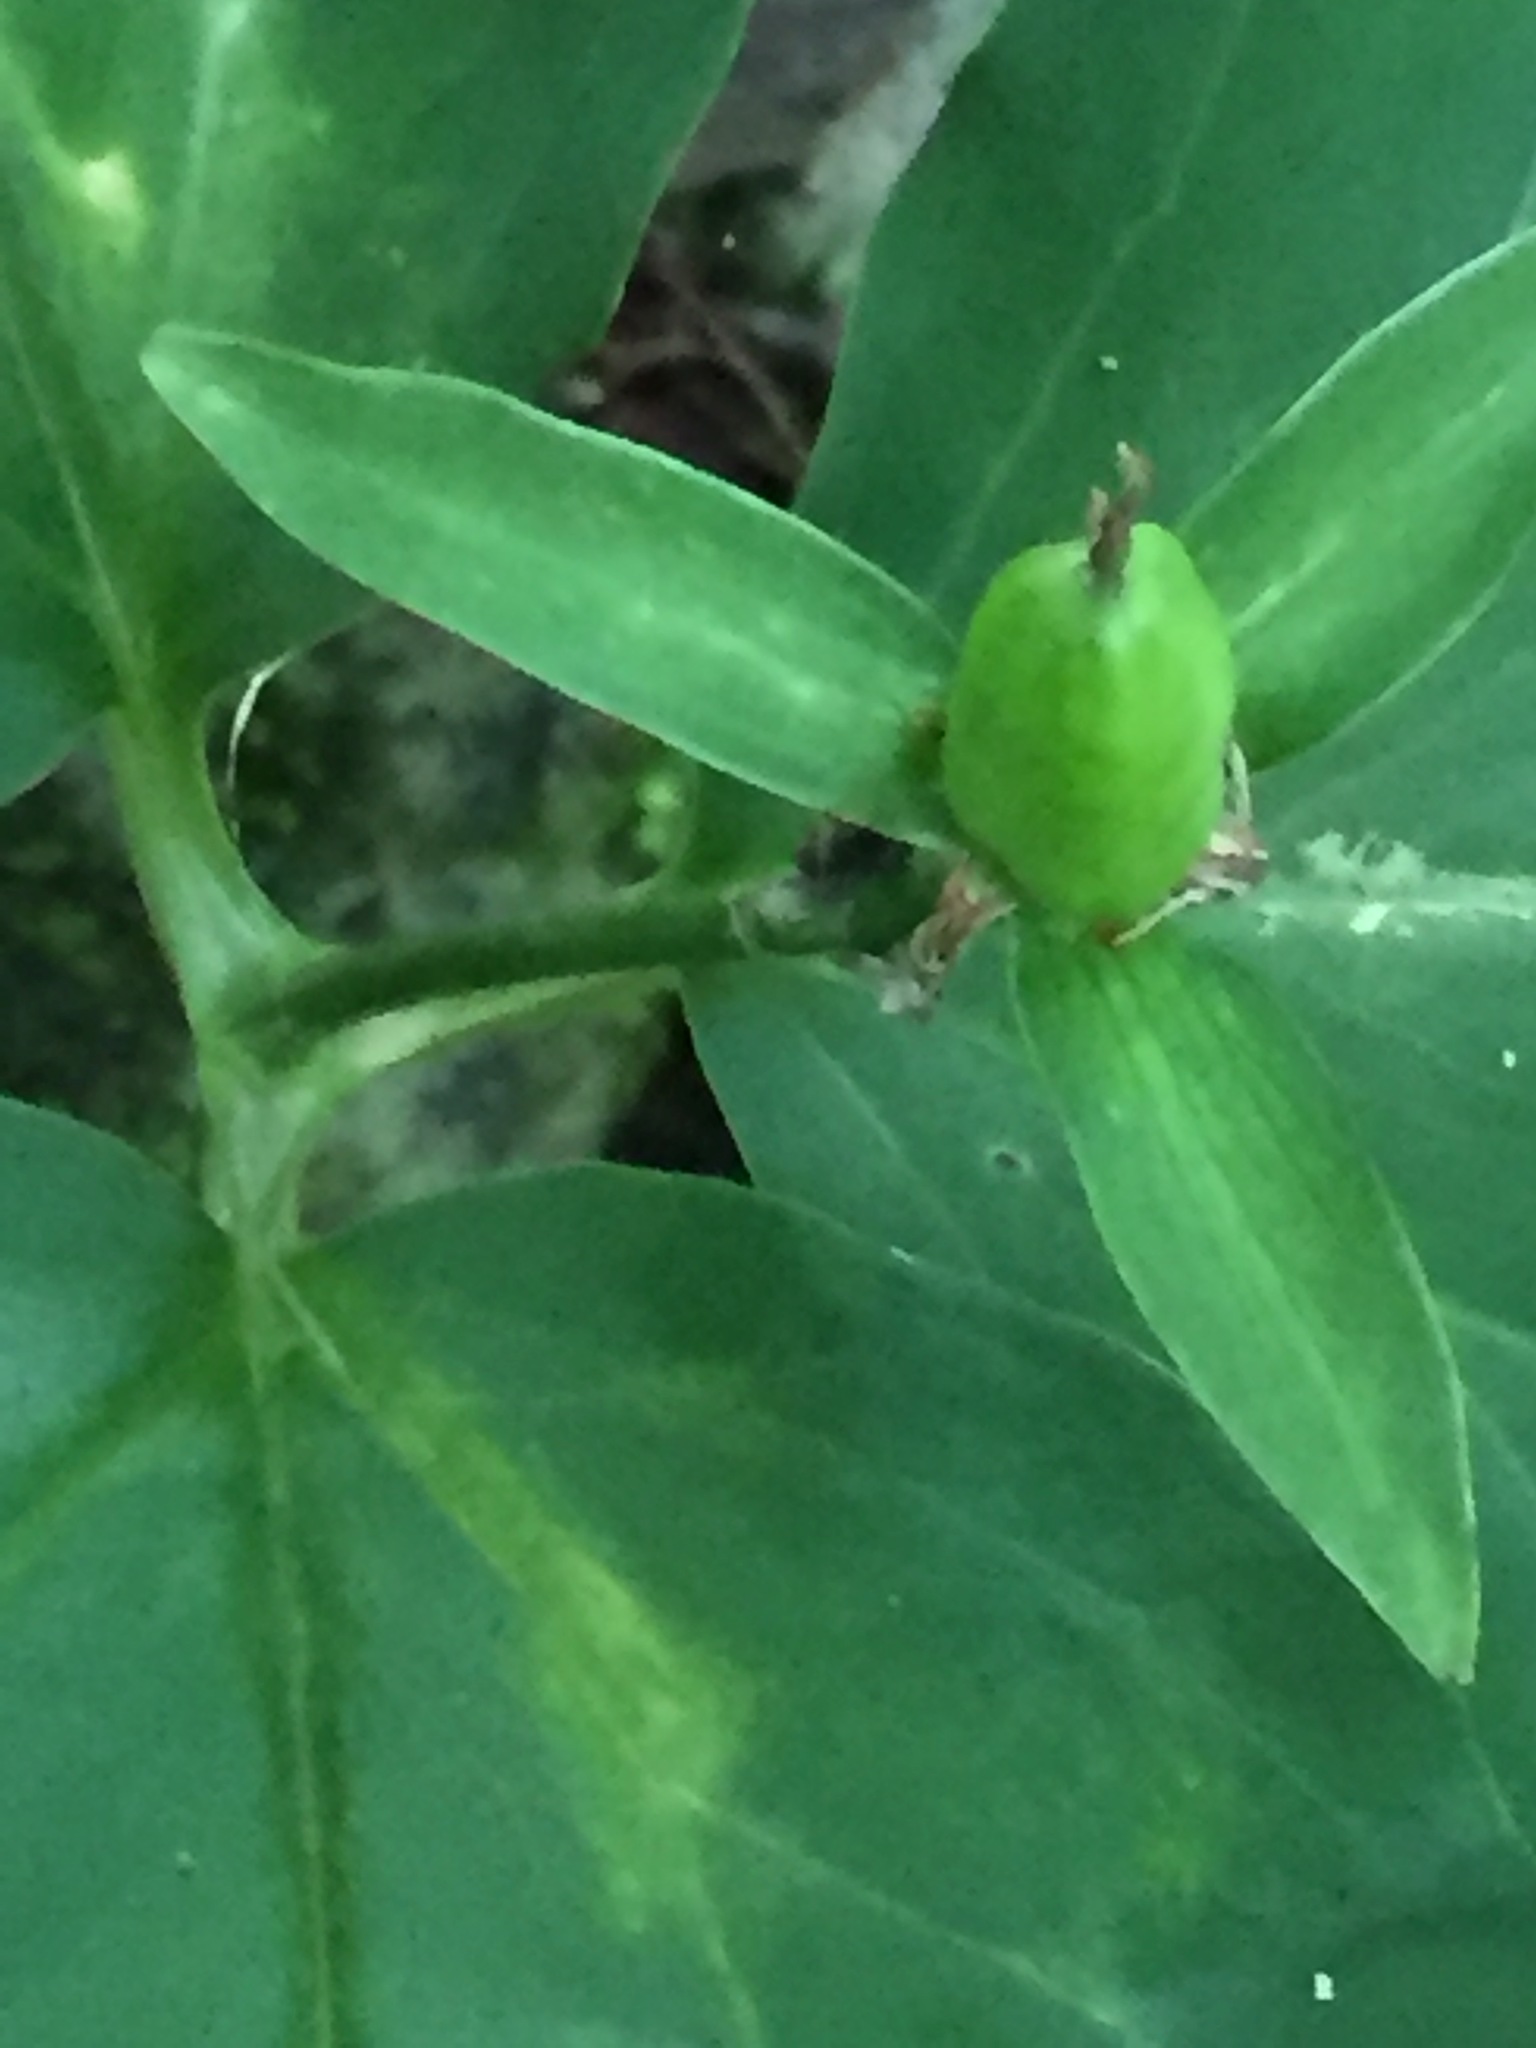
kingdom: Plantae
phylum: Tracheophyta
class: Liliopsida
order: Liliales
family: Melanthiaceae
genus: Trillium
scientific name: Trillium undulatum
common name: Paint trillium
